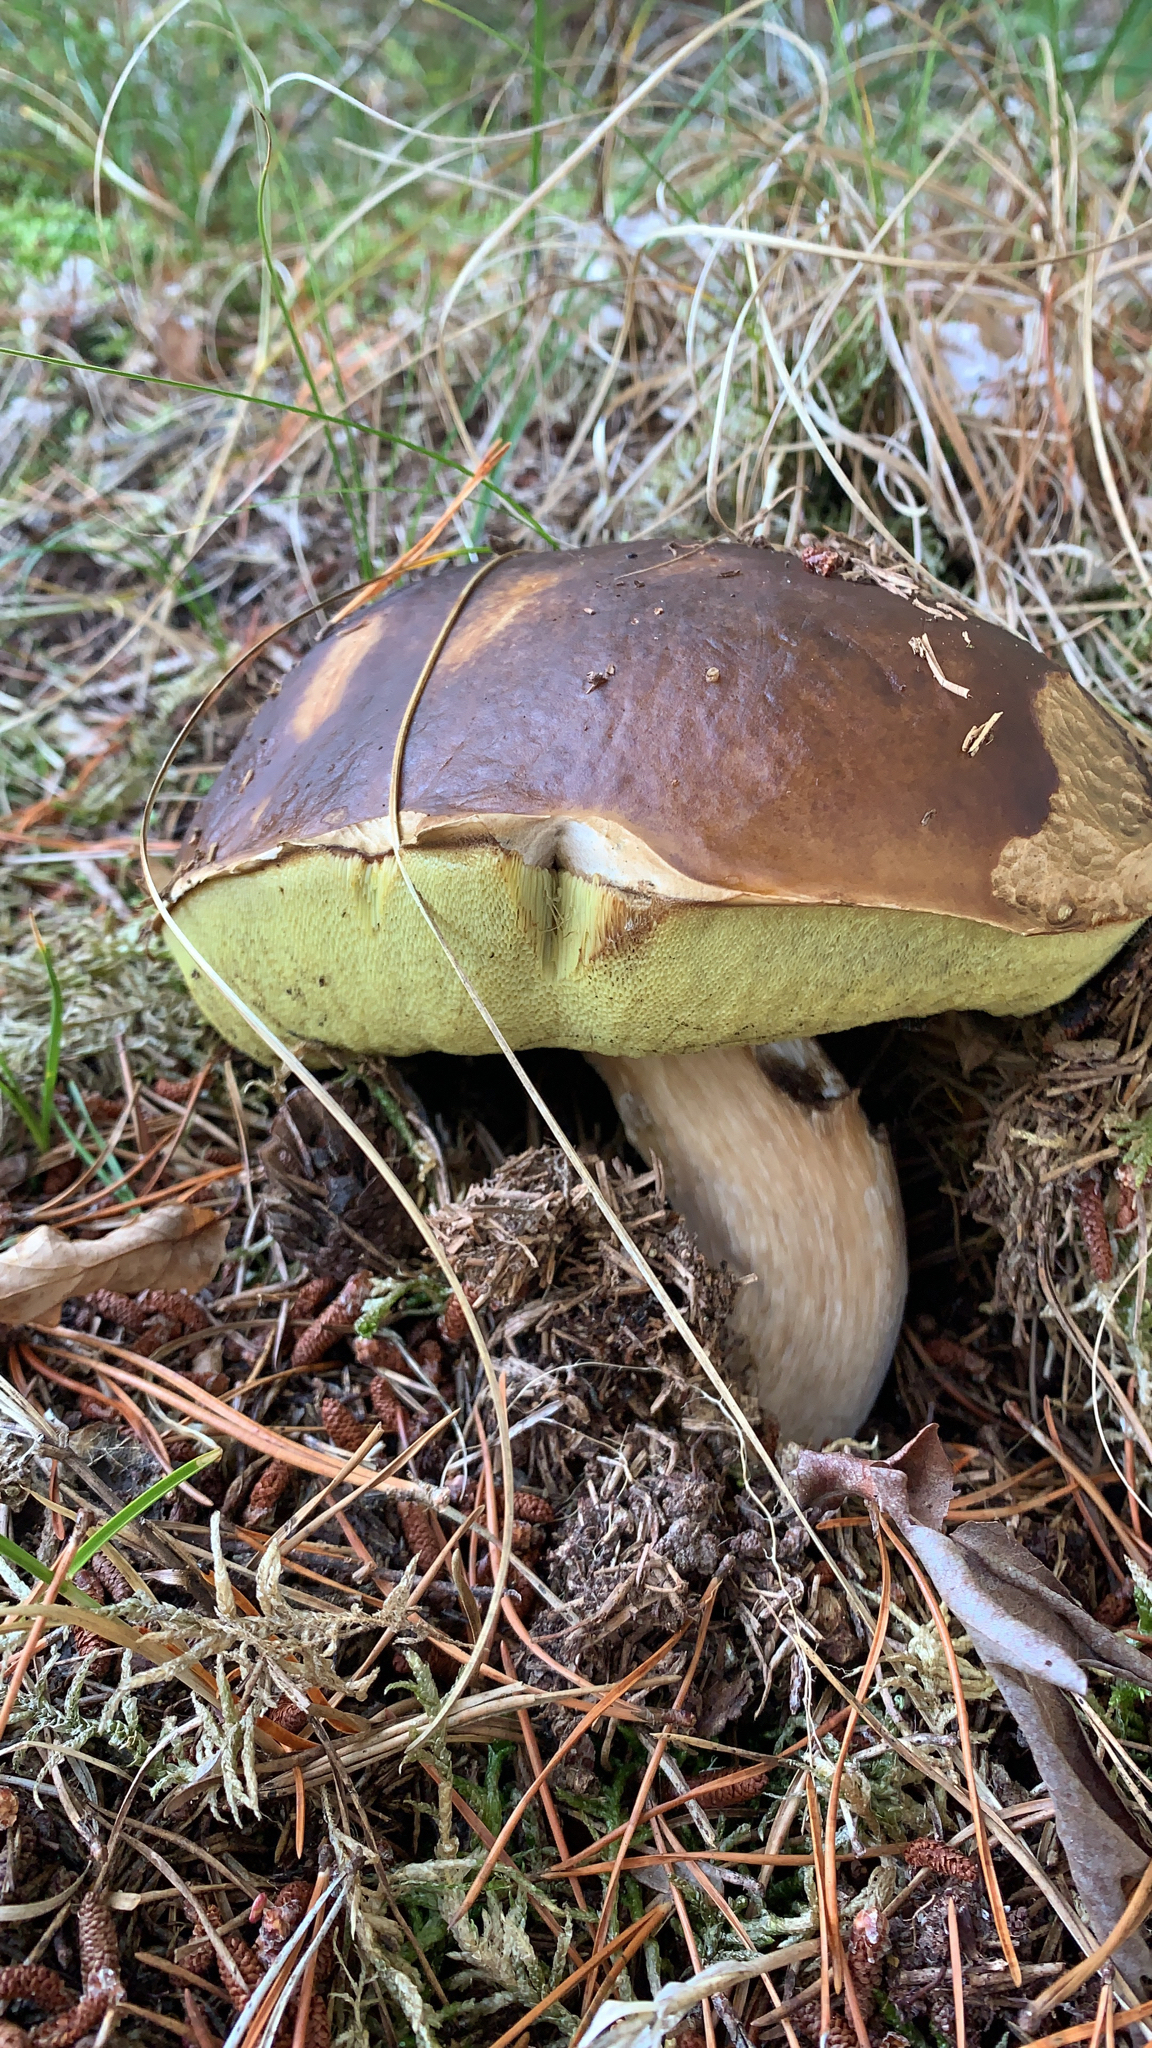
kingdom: Fungi
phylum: Basidiomycota
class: Agaricomycetes
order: Boletales
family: Boletaceae
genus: Boletus
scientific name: Boletus edulis
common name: Cep
